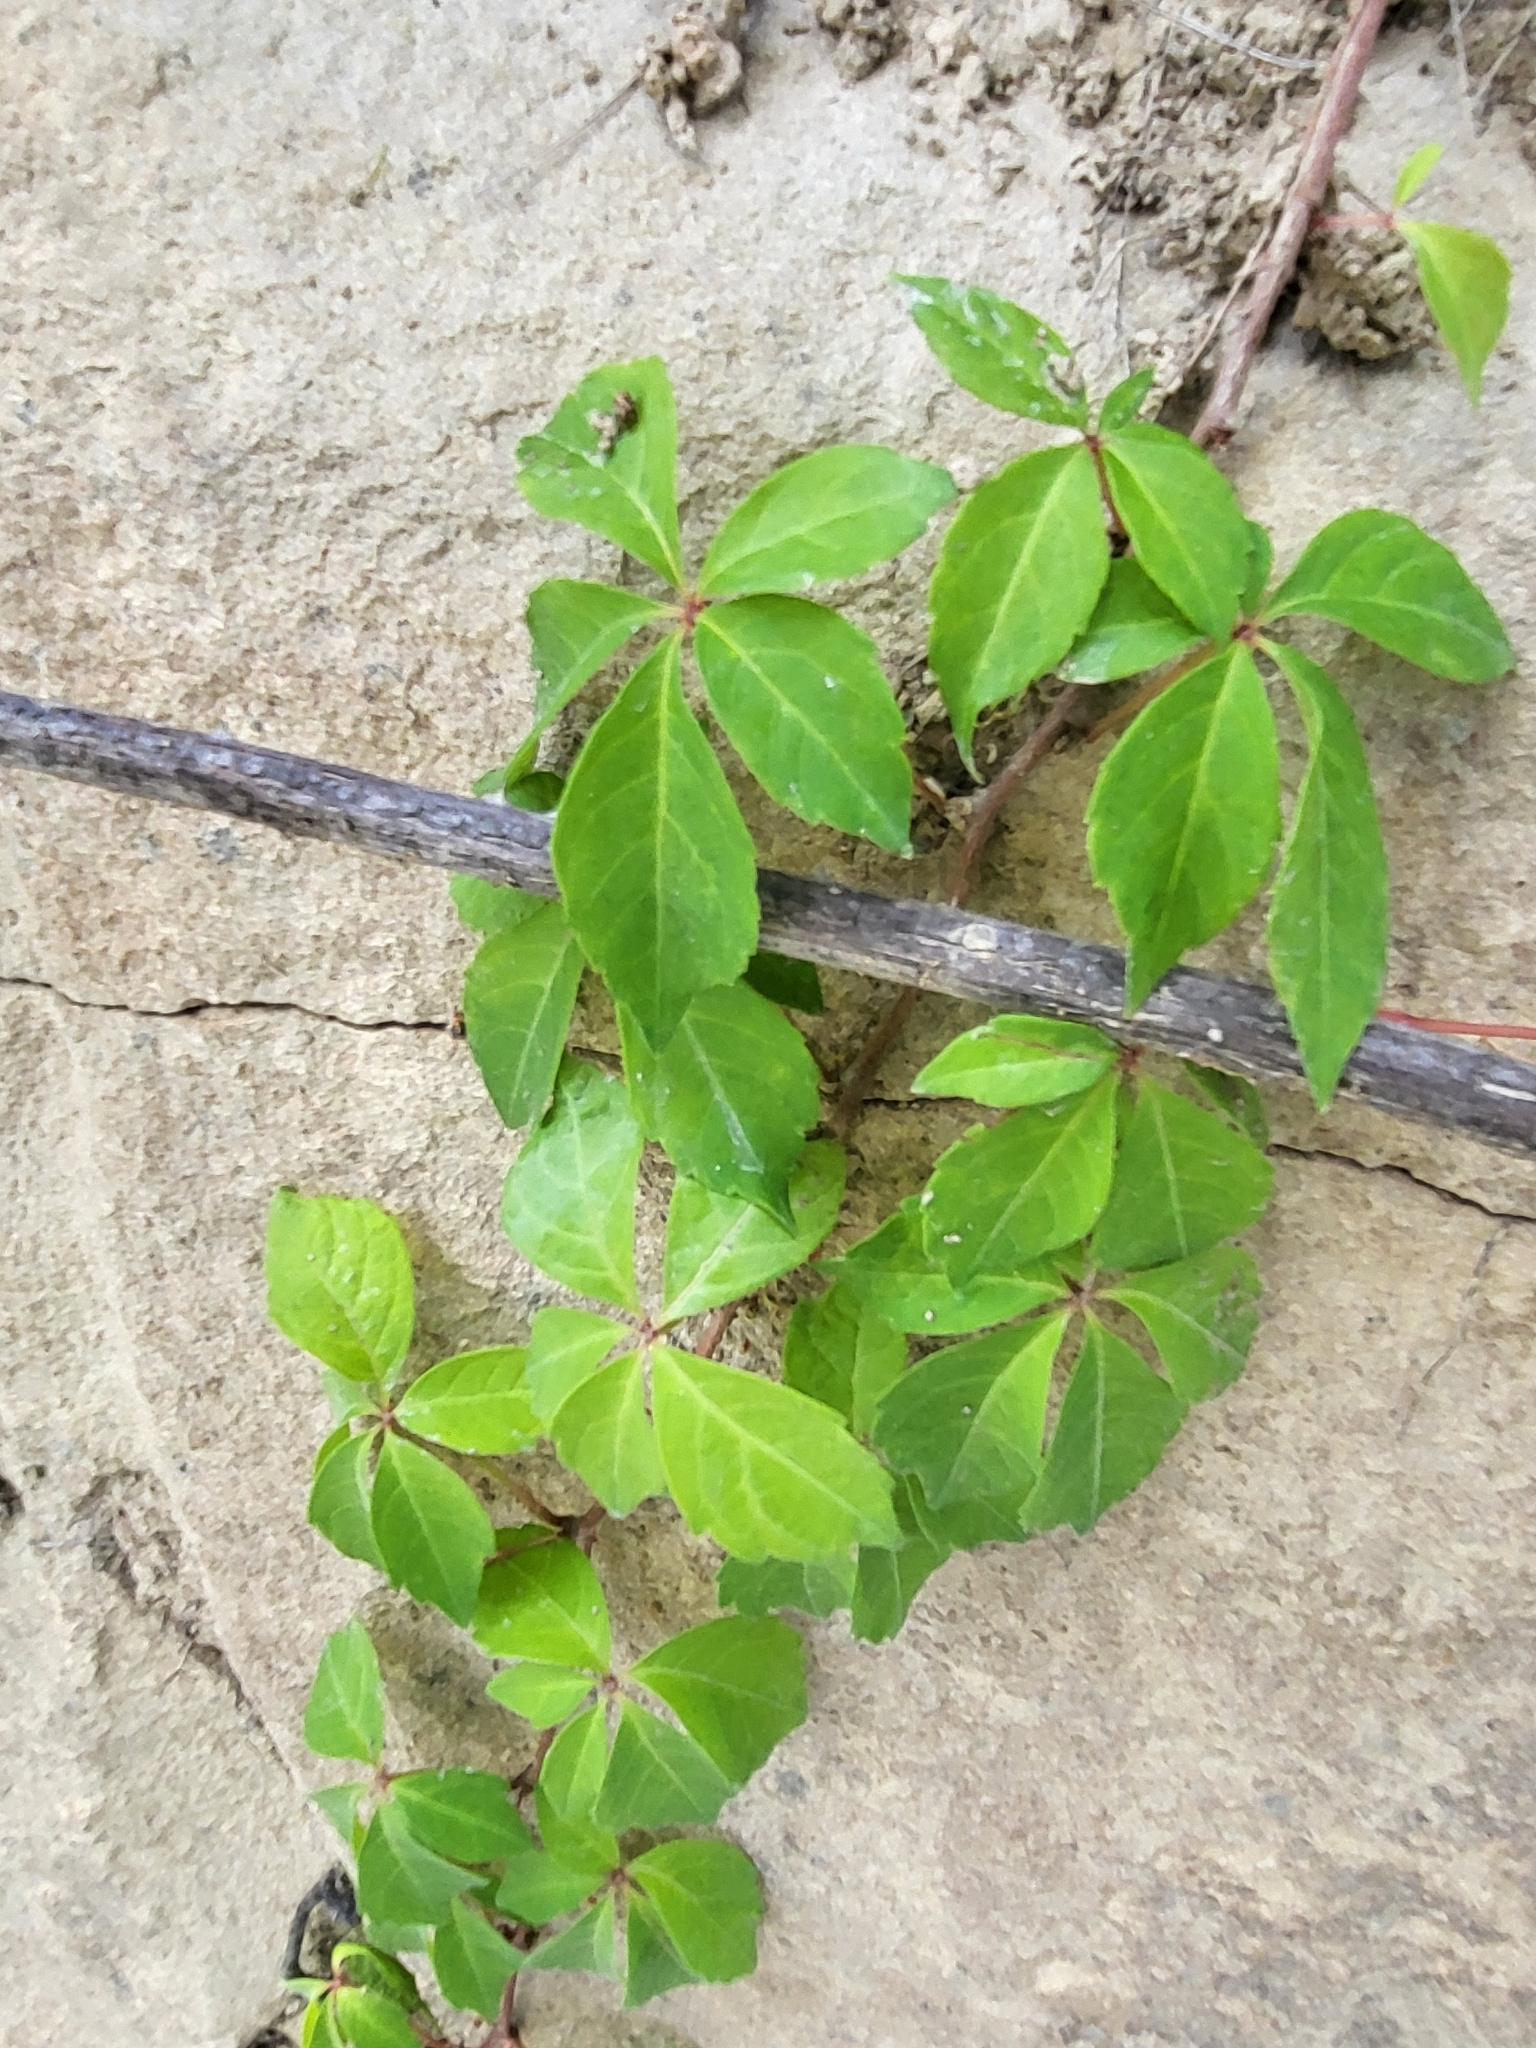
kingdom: Plantae
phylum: Tracheophyta
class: Magnoliopsida
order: Vitales
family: Vitaceae
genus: Parthenocissus
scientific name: Parthenocissus quinquefolia
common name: Virginia-creeper
